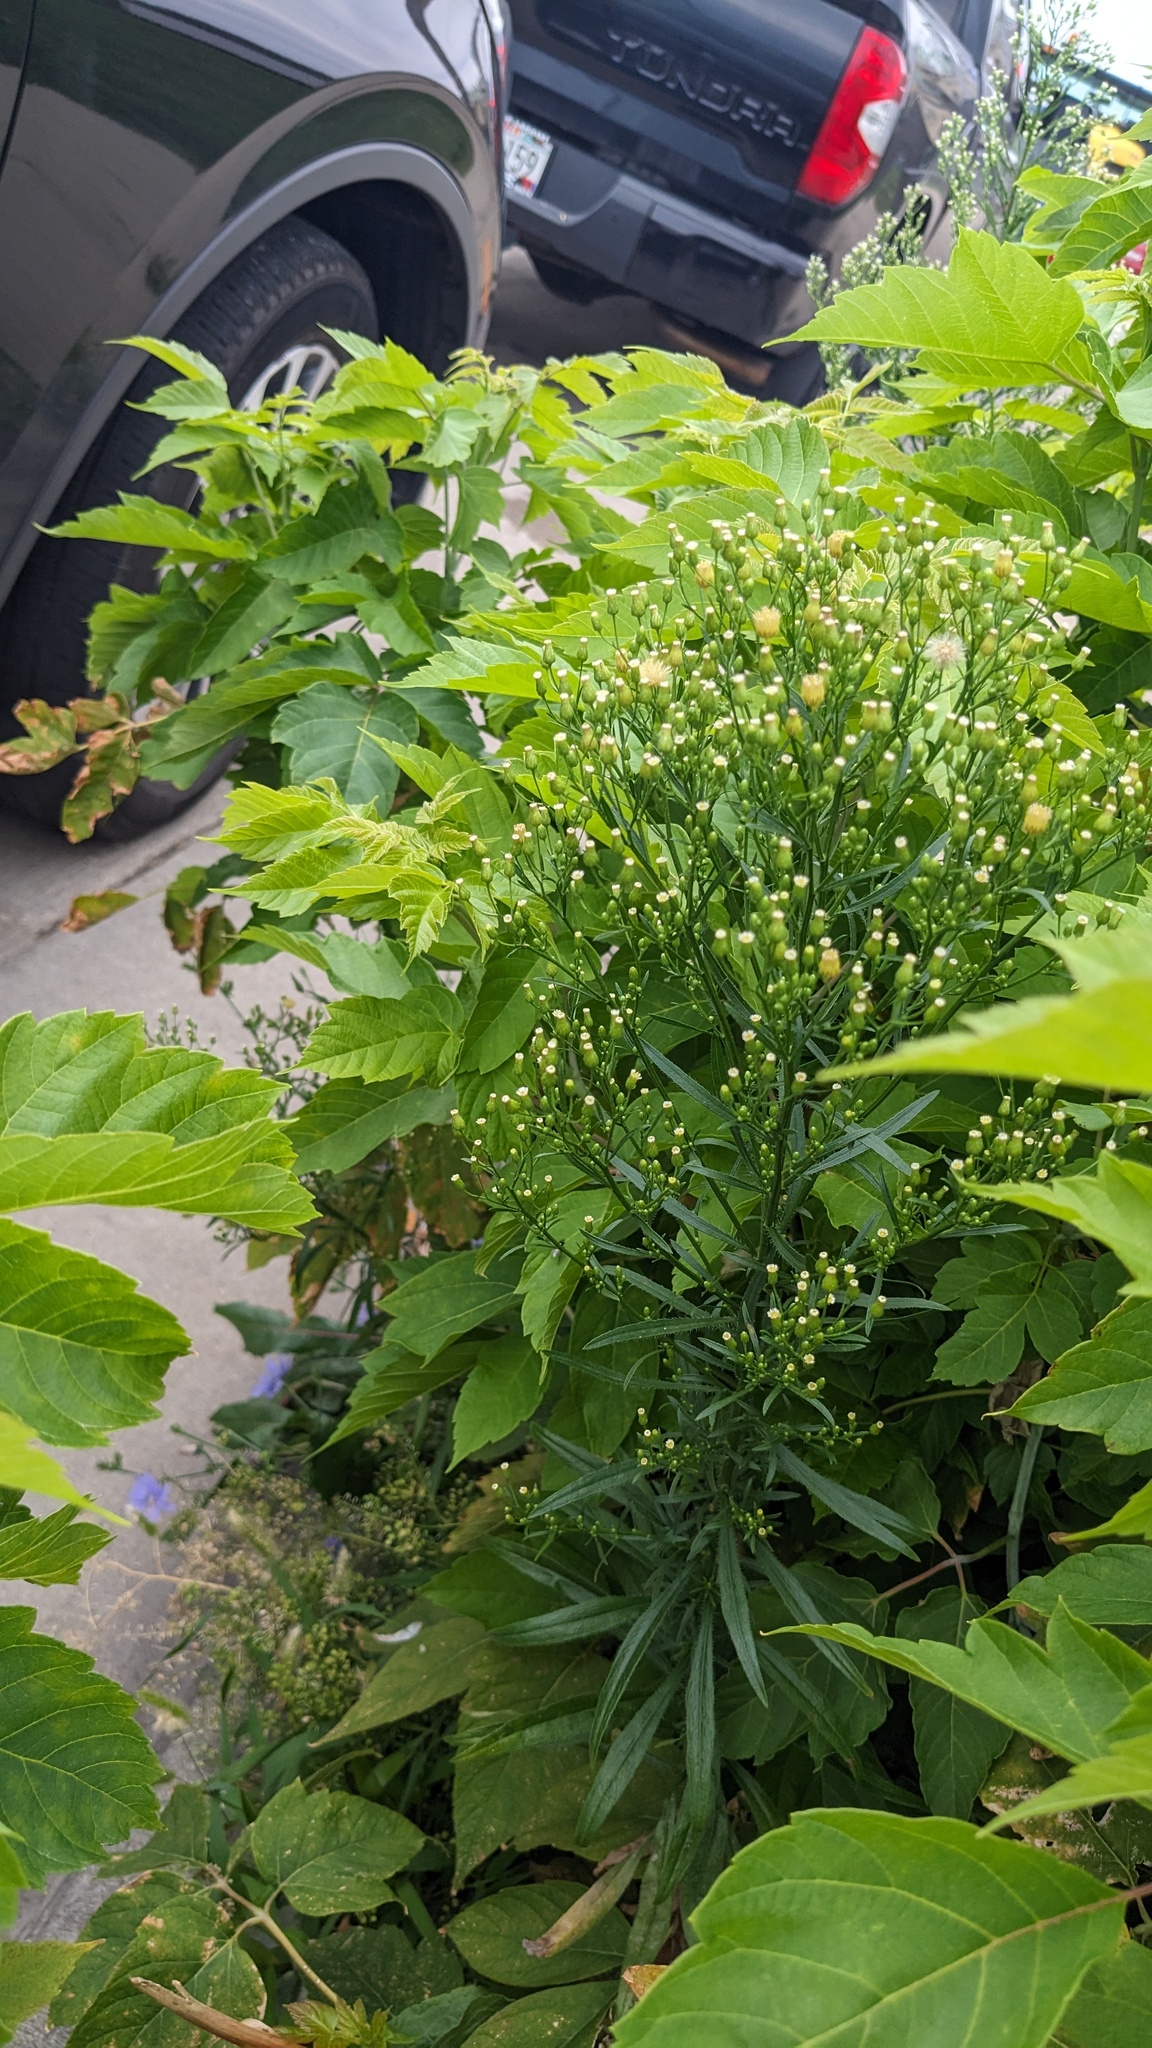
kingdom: Plantae
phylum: Tracheophyta
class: Magnoliopsida
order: Asterales
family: Asteraceae
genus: Erigeron
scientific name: Erigeron canadensis
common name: Canadian fleabane
